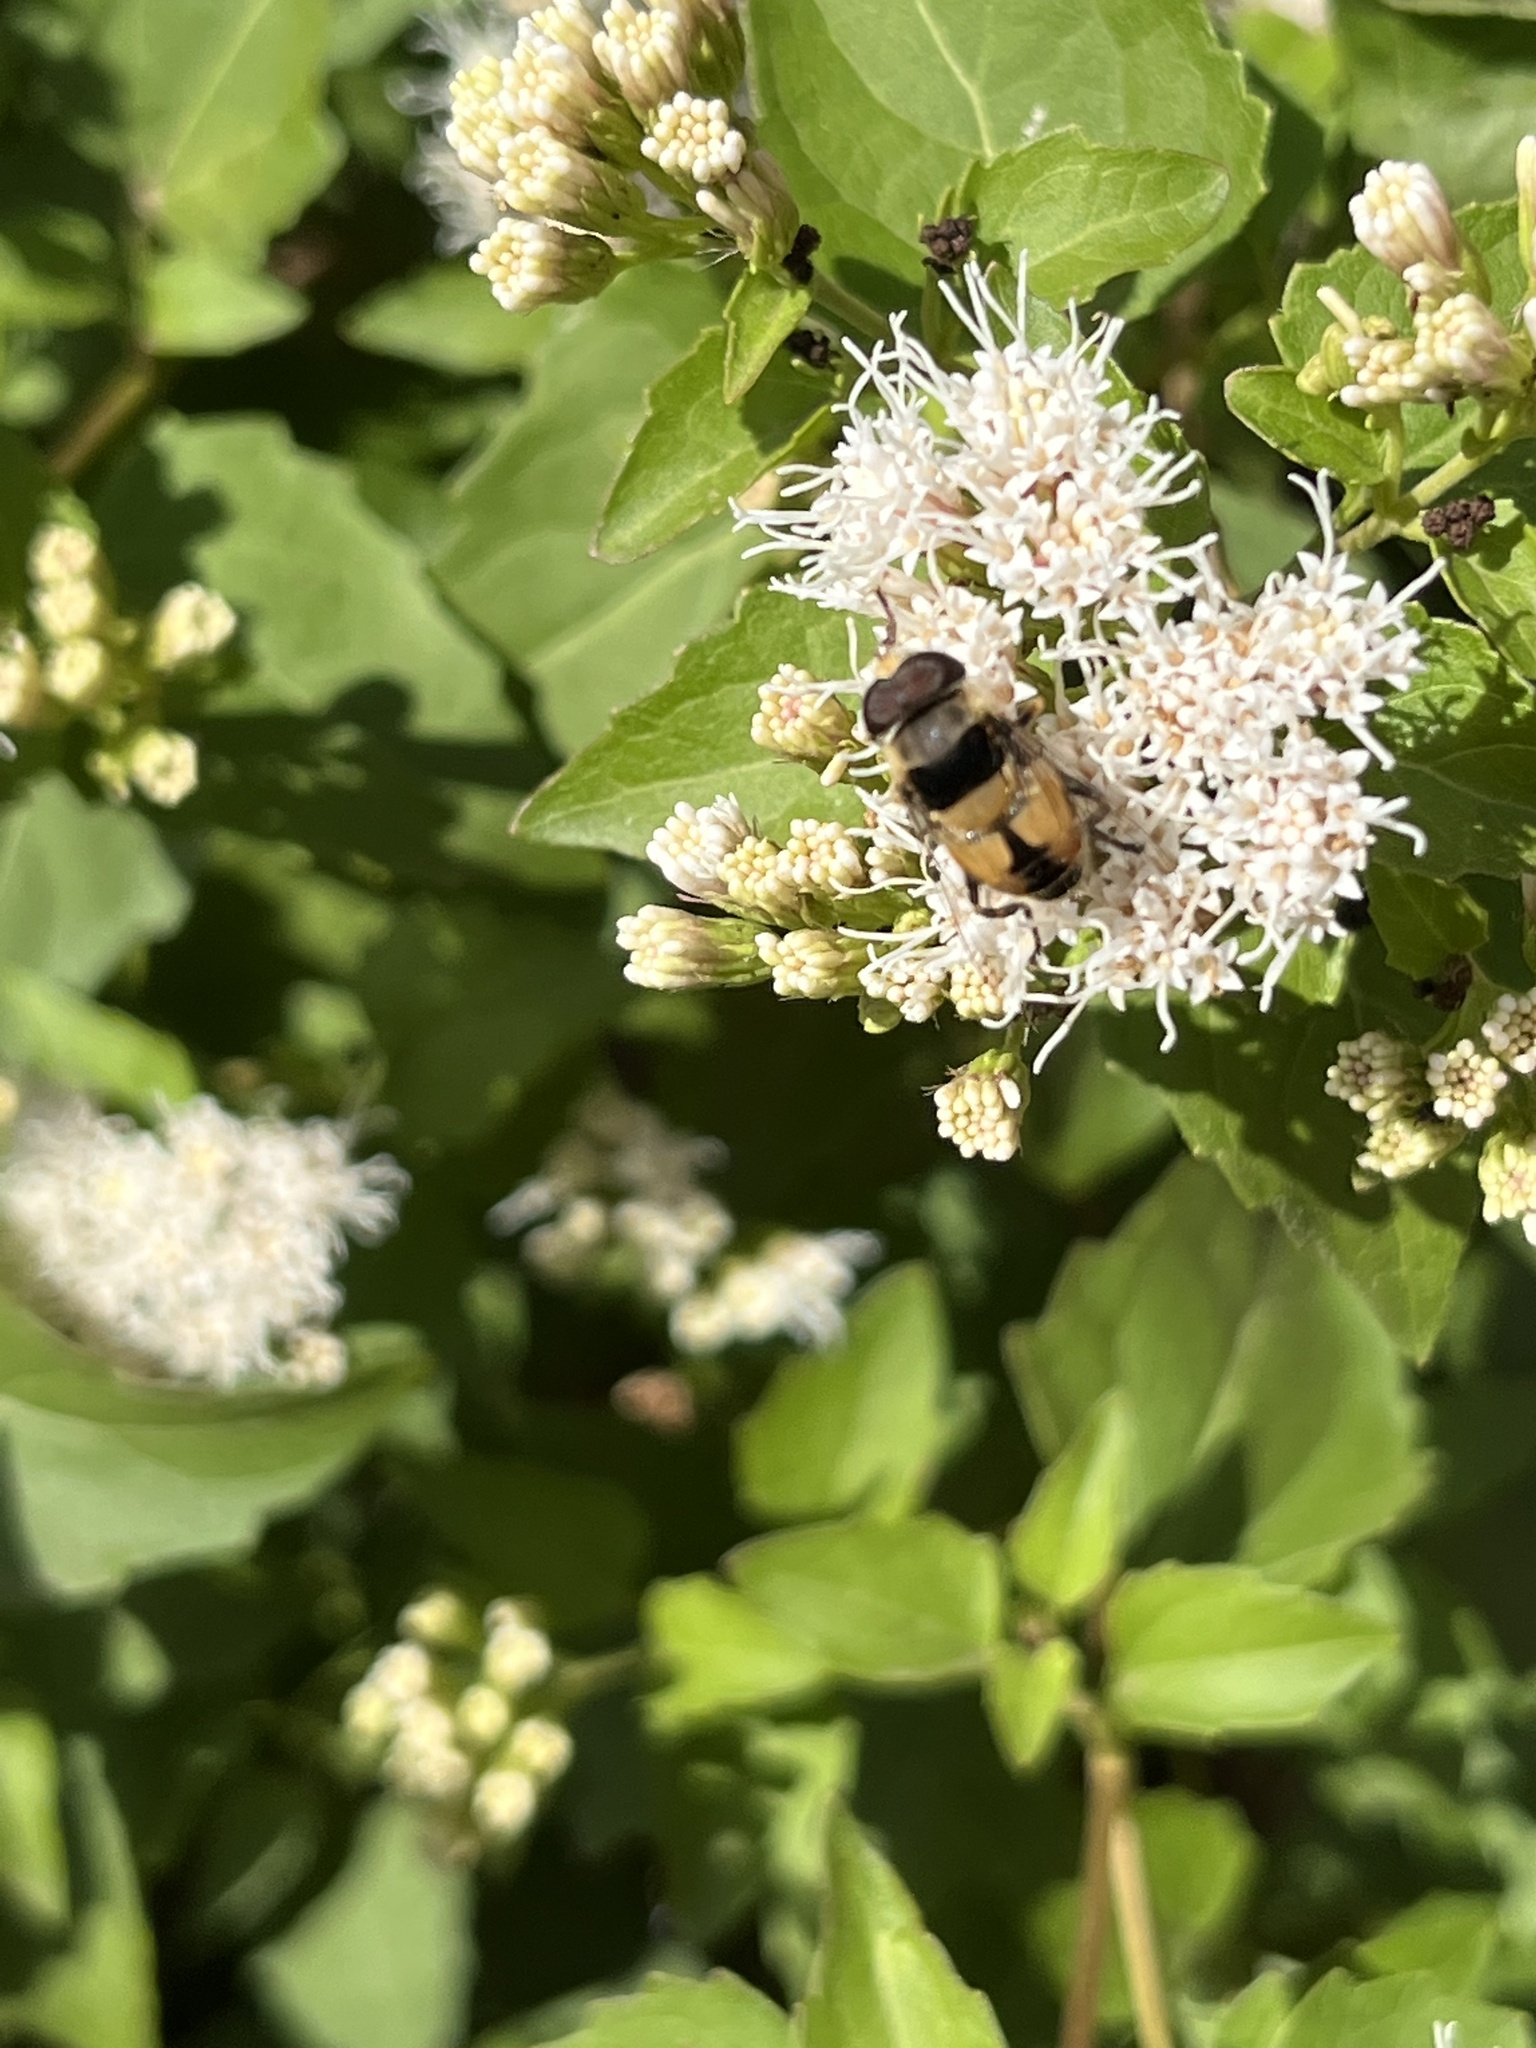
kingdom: Animalia
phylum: Arthropoda
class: Insecta
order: Diptera
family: Syrphidae
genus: Palpada
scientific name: Palpada pusilla
